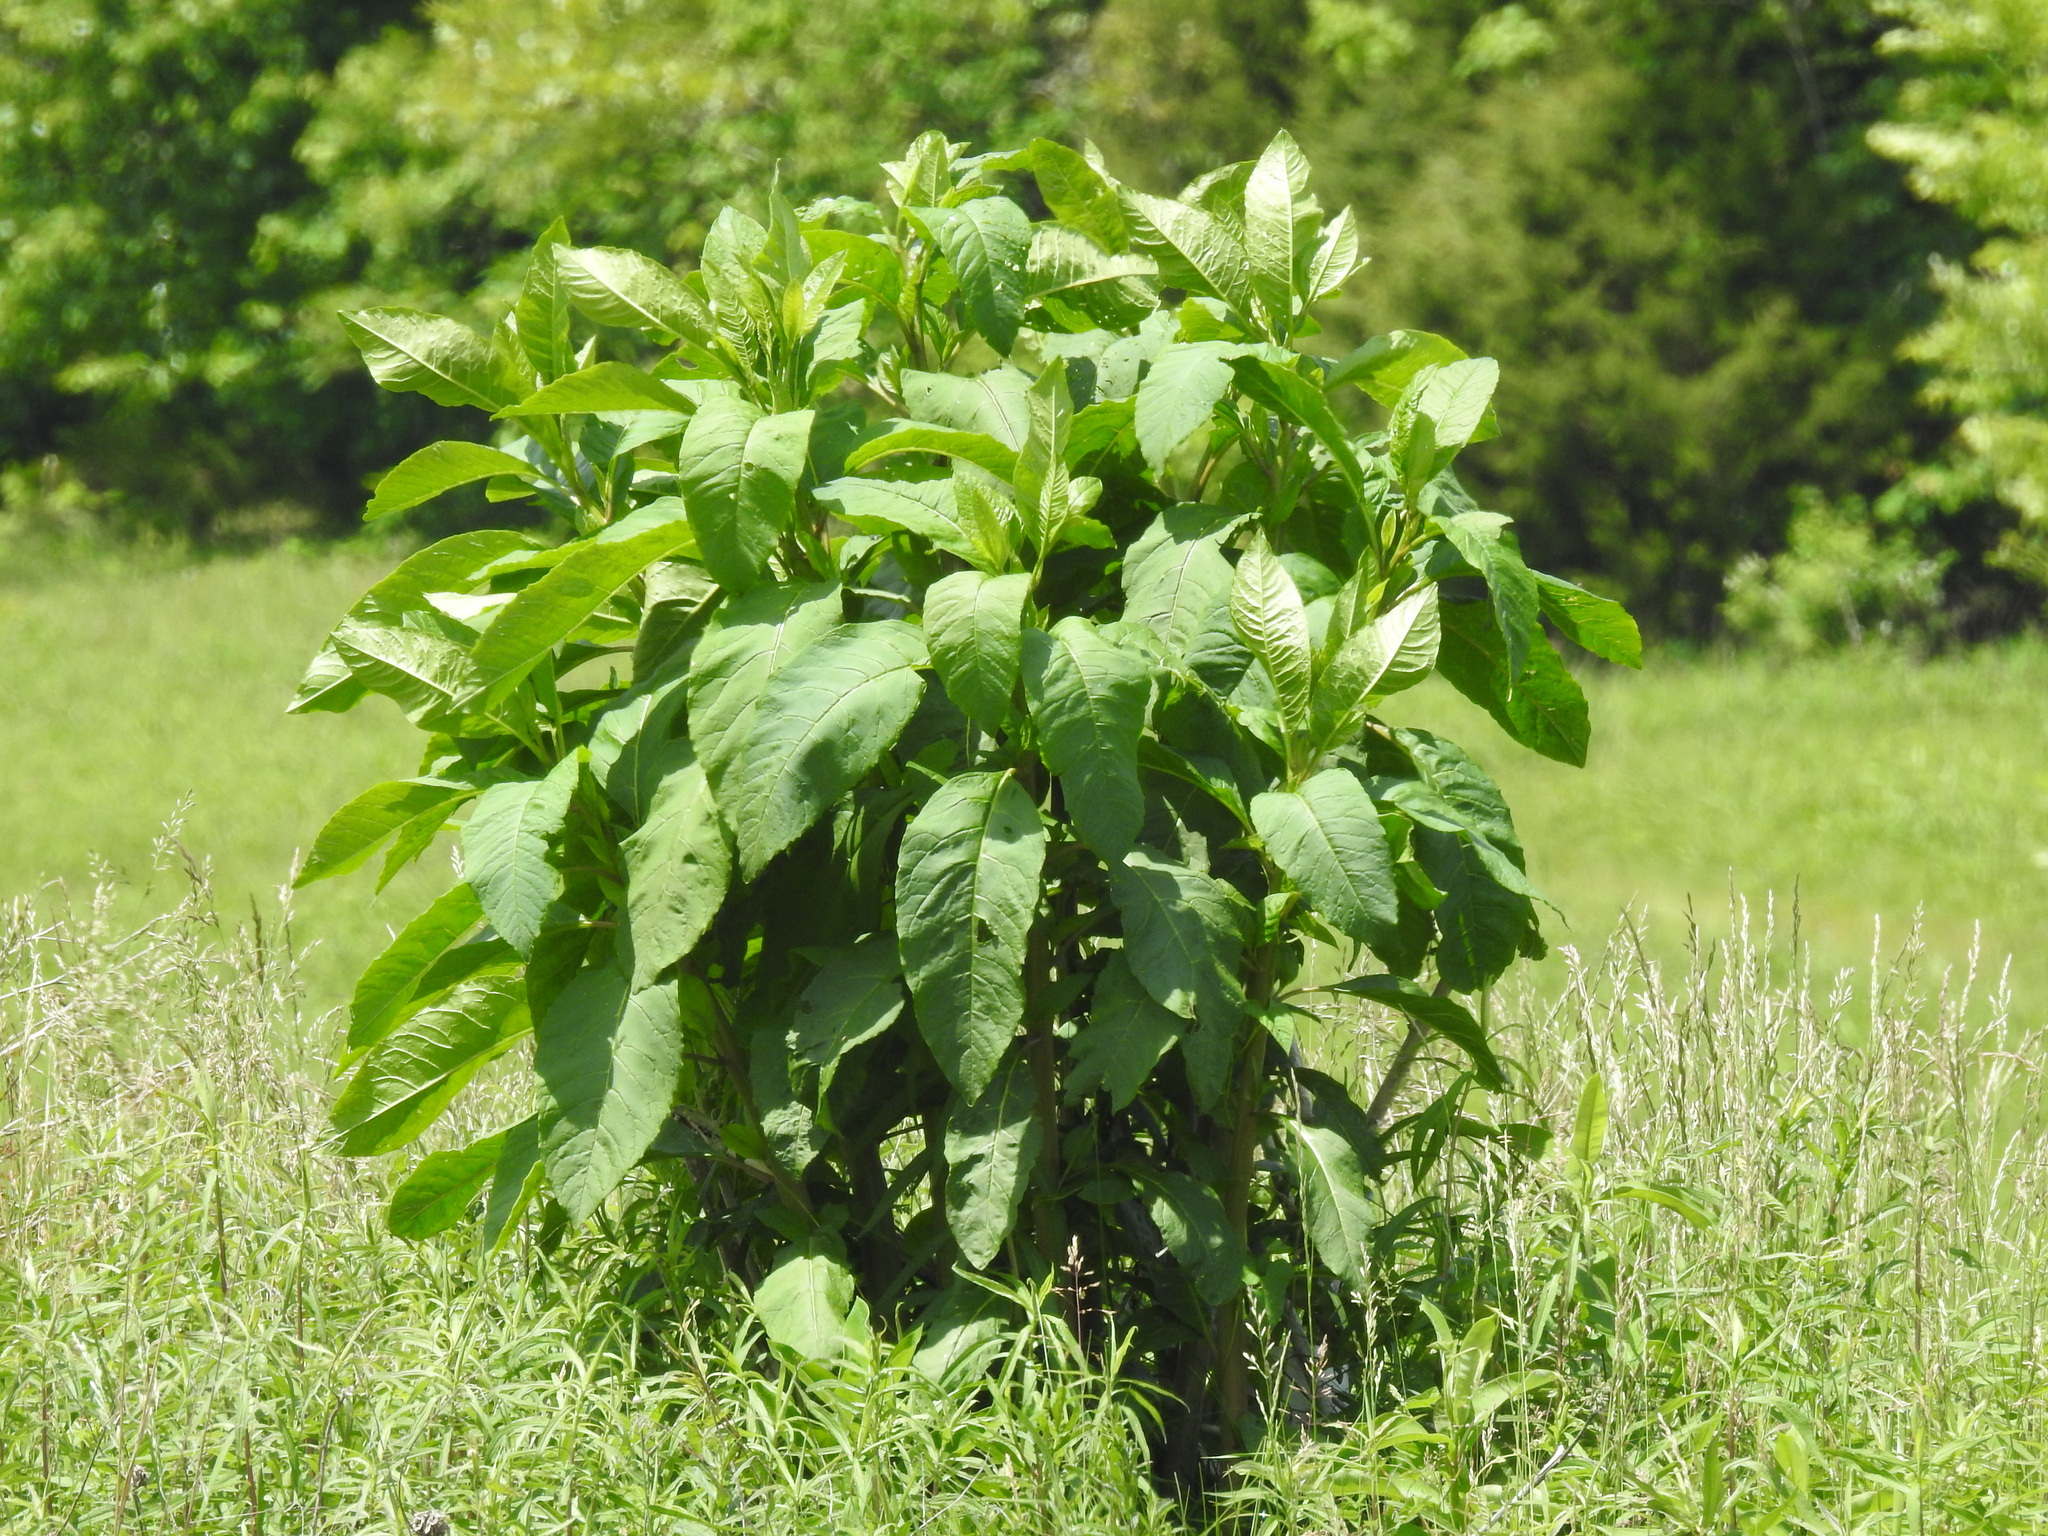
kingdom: Plantae
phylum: Tracheophyta
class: Magnoliopsida
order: Caryophyllales
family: Phytolaccaceae
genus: Phytolacca
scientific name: Phytolacca americana
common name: American pokeweed
